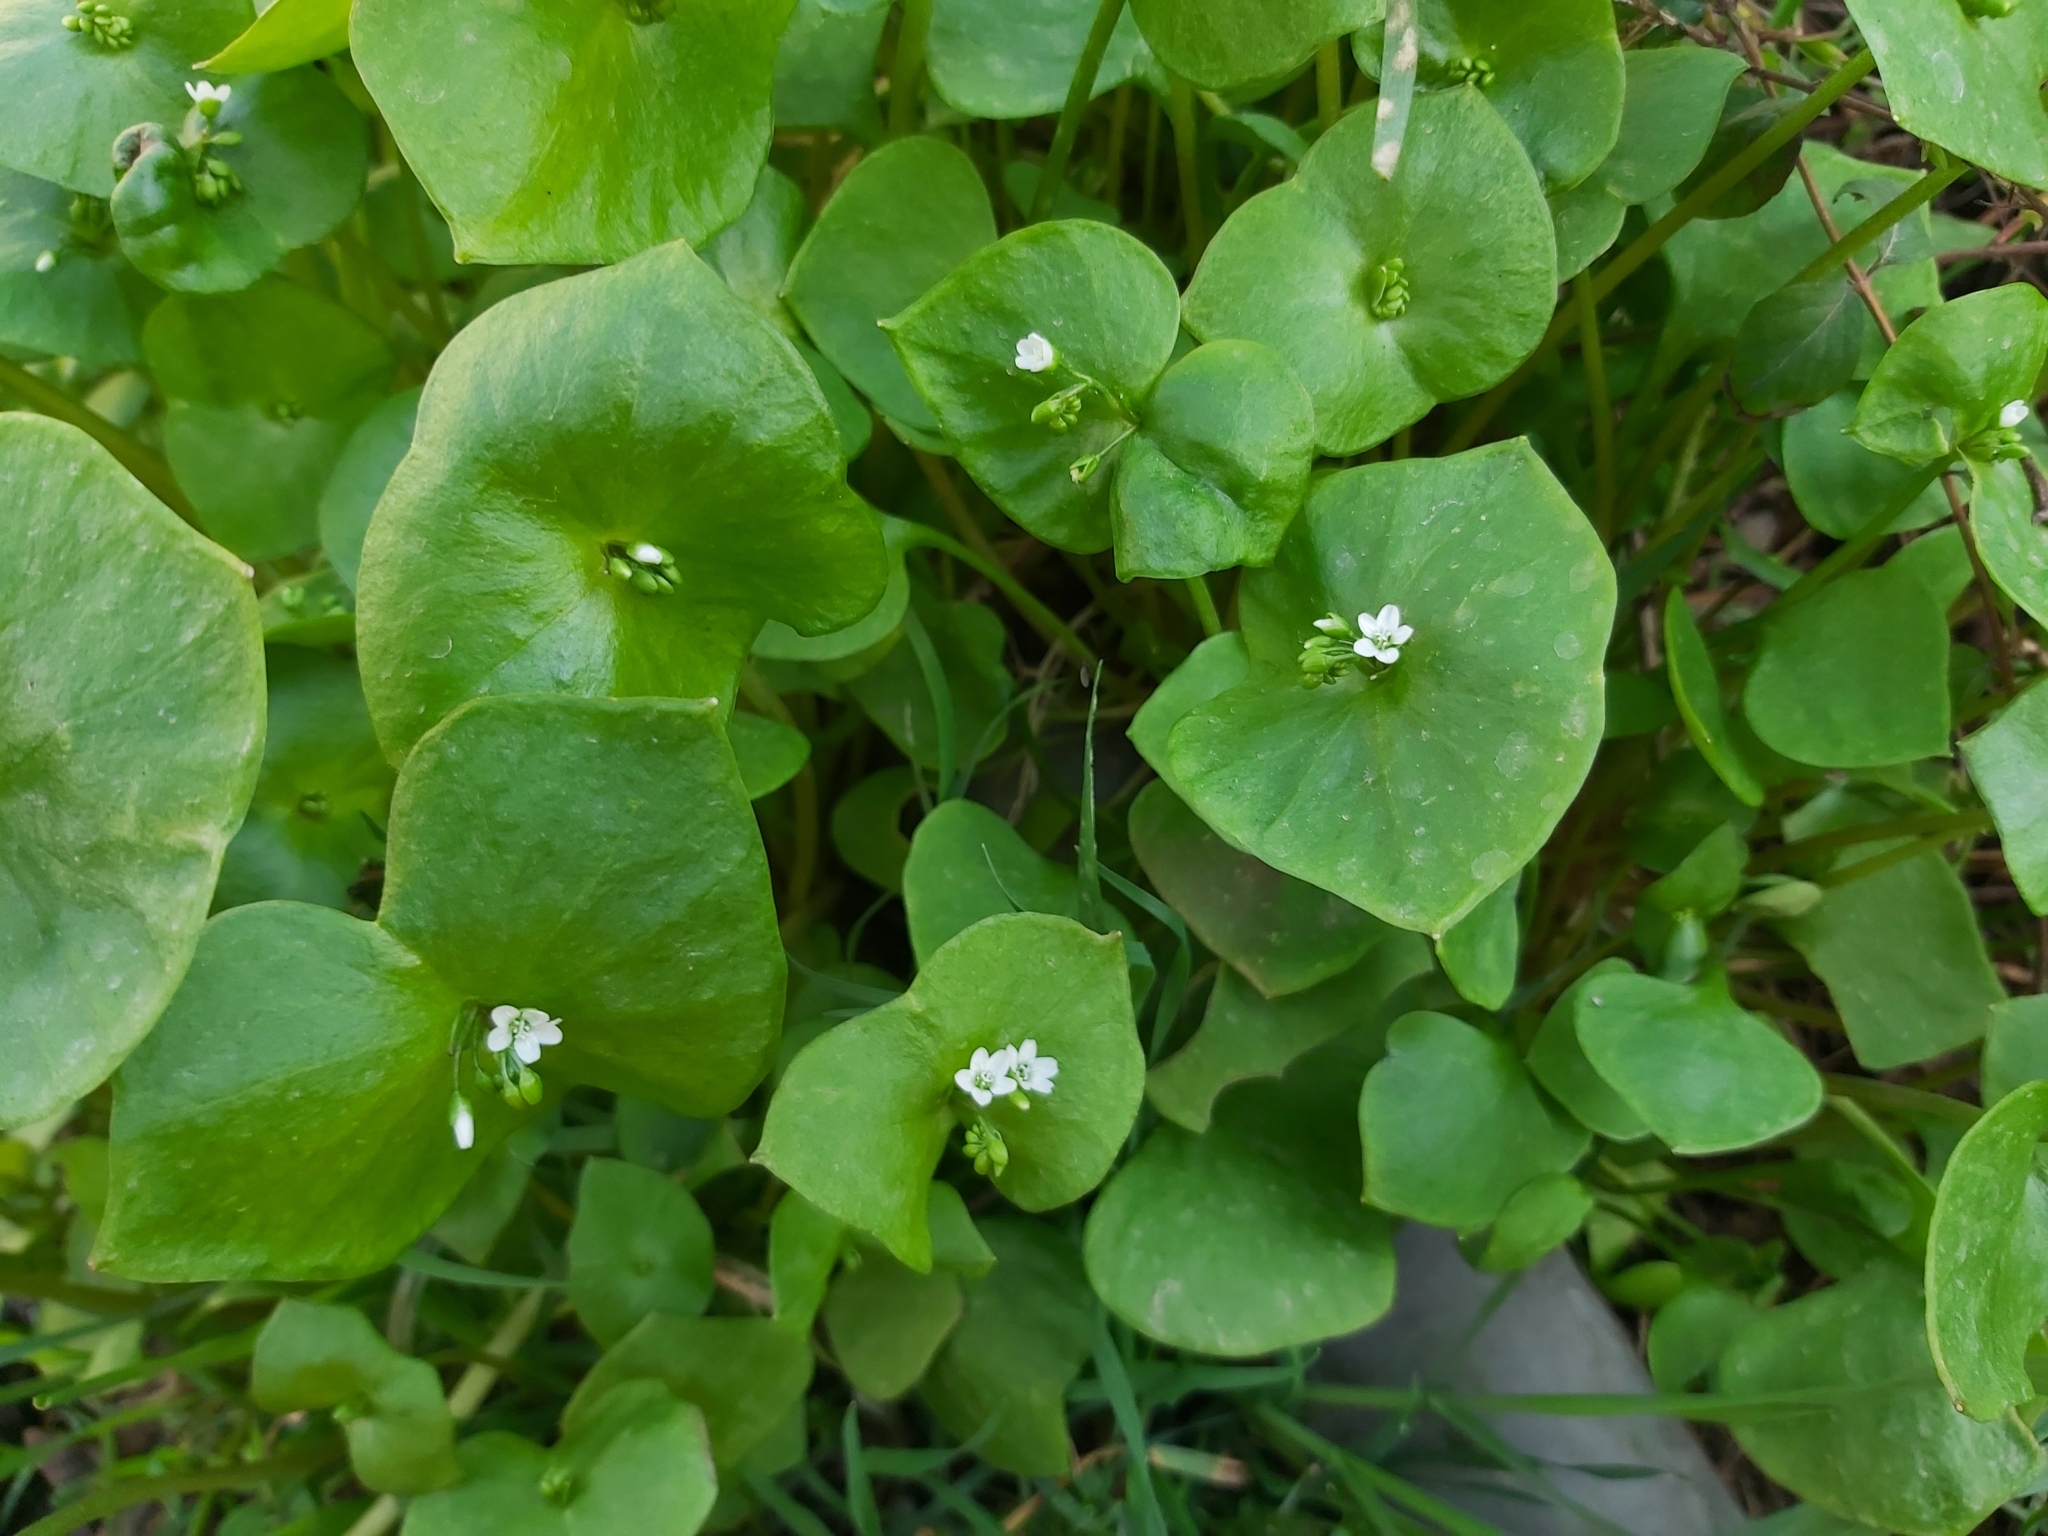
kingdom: Plantae
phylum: Tracheophyta
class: Magnoliopsida
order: Caryophyllales
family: Montiaceae
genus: Claytonia
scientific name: Claytonia perfoliata
